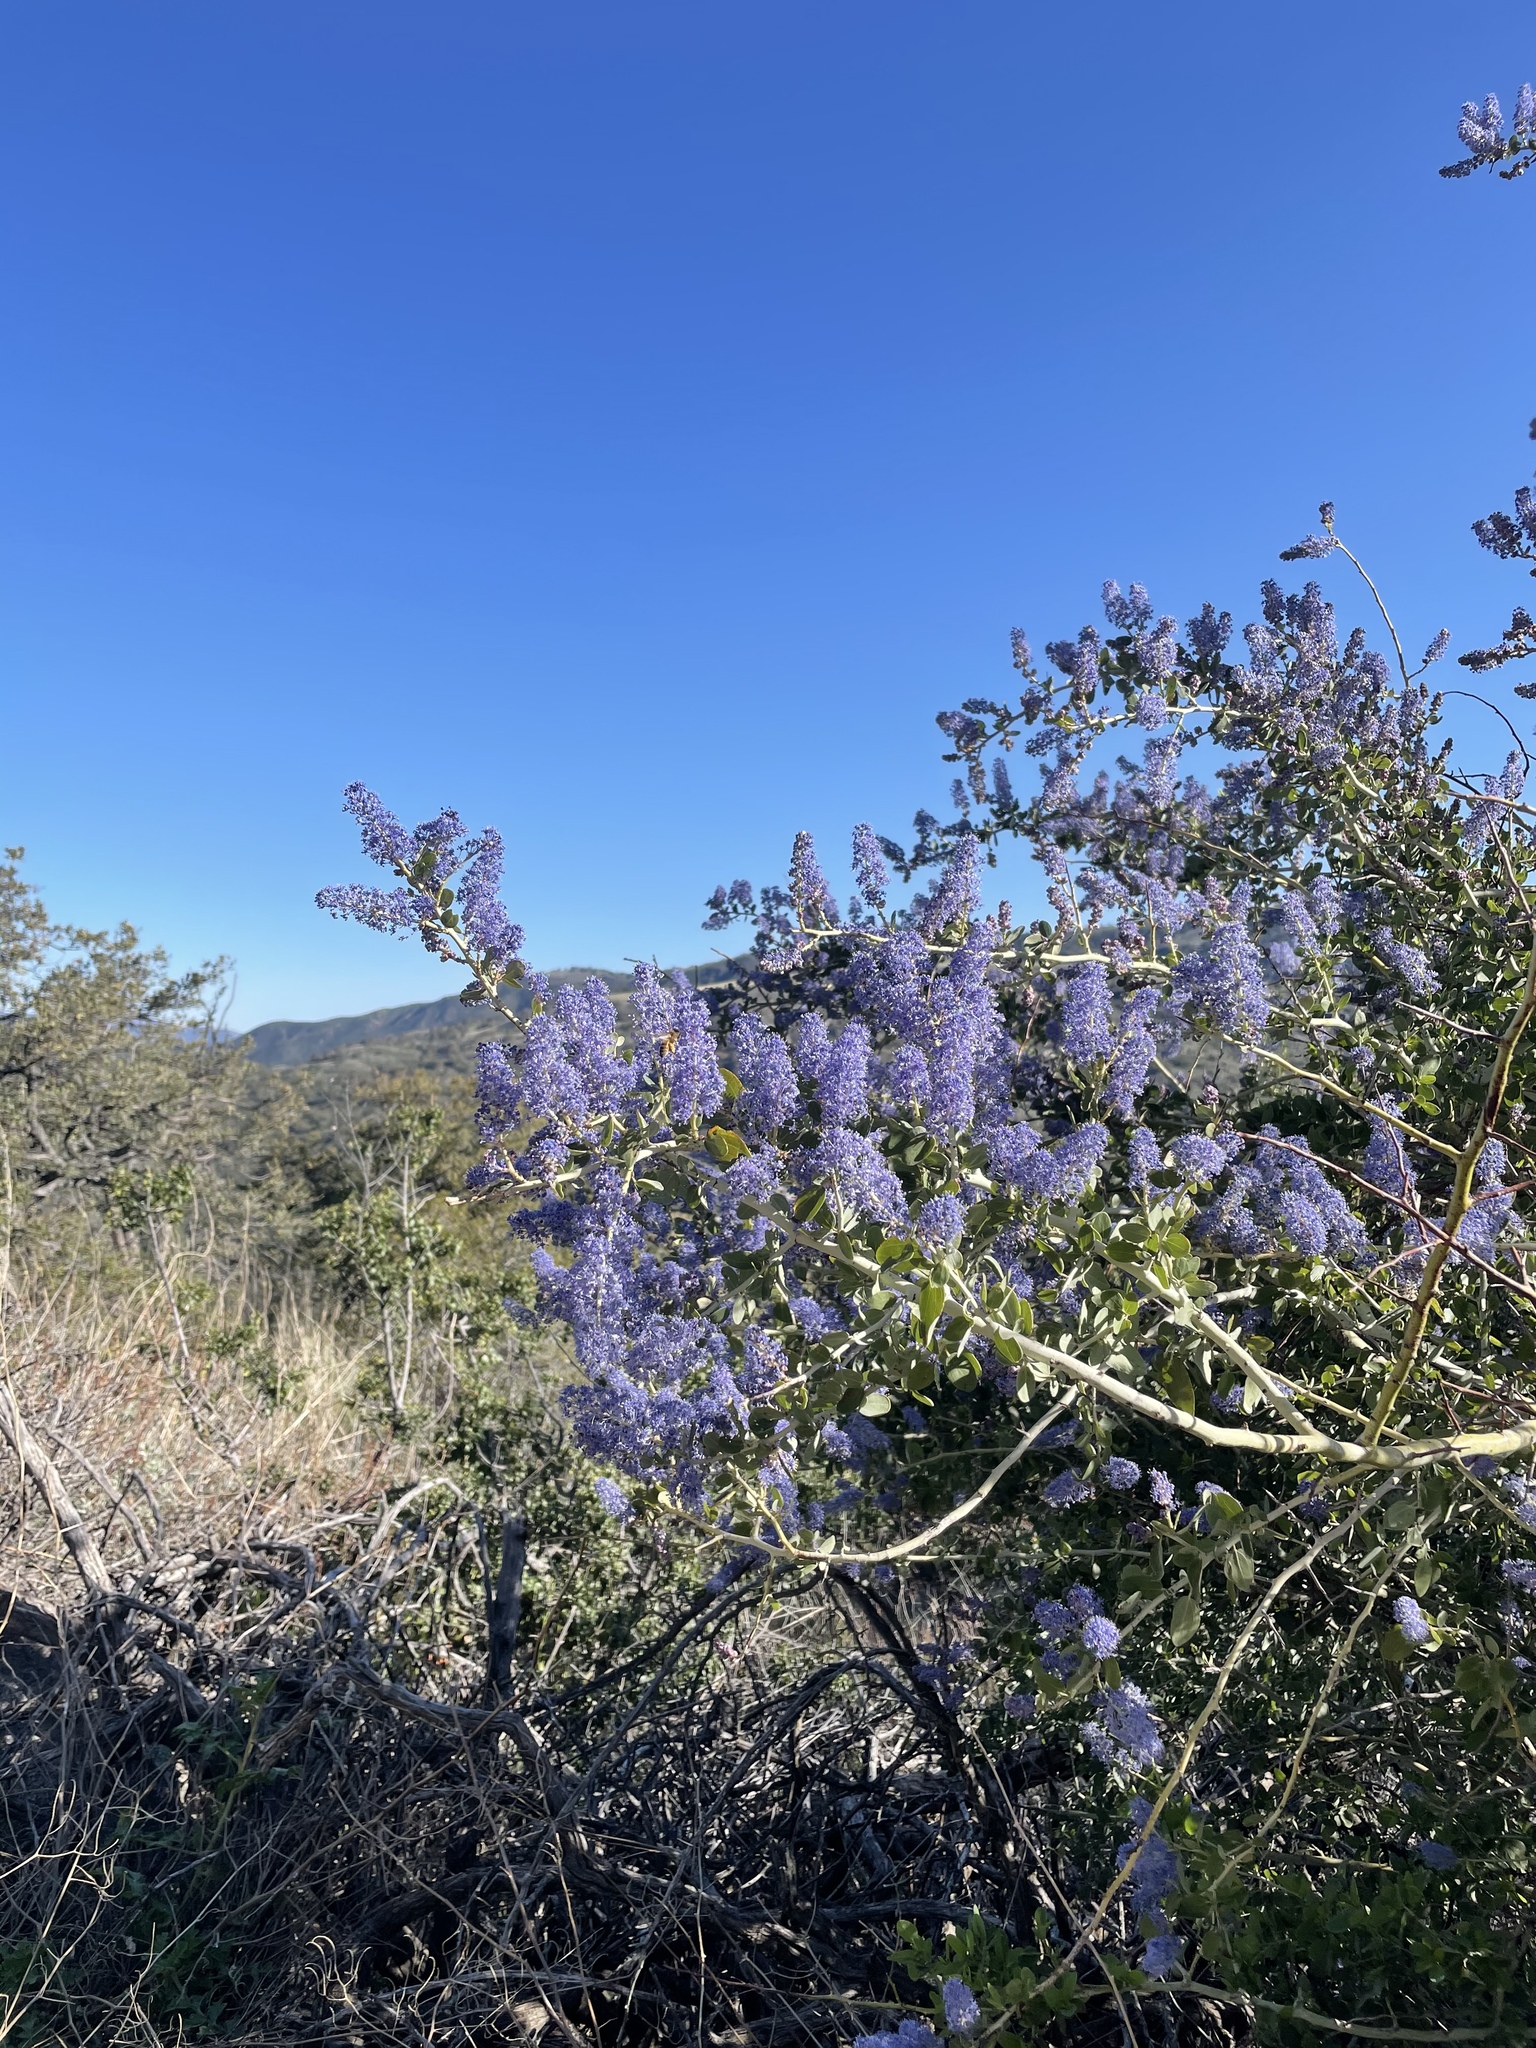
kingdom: Plantae
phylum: Tracheophyta
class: Magnoliopsida
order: Rosales
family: Rhamnaceae
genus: Ceanothus
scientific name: Ceanothus leucodermis
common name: Chaparral whitethorn
